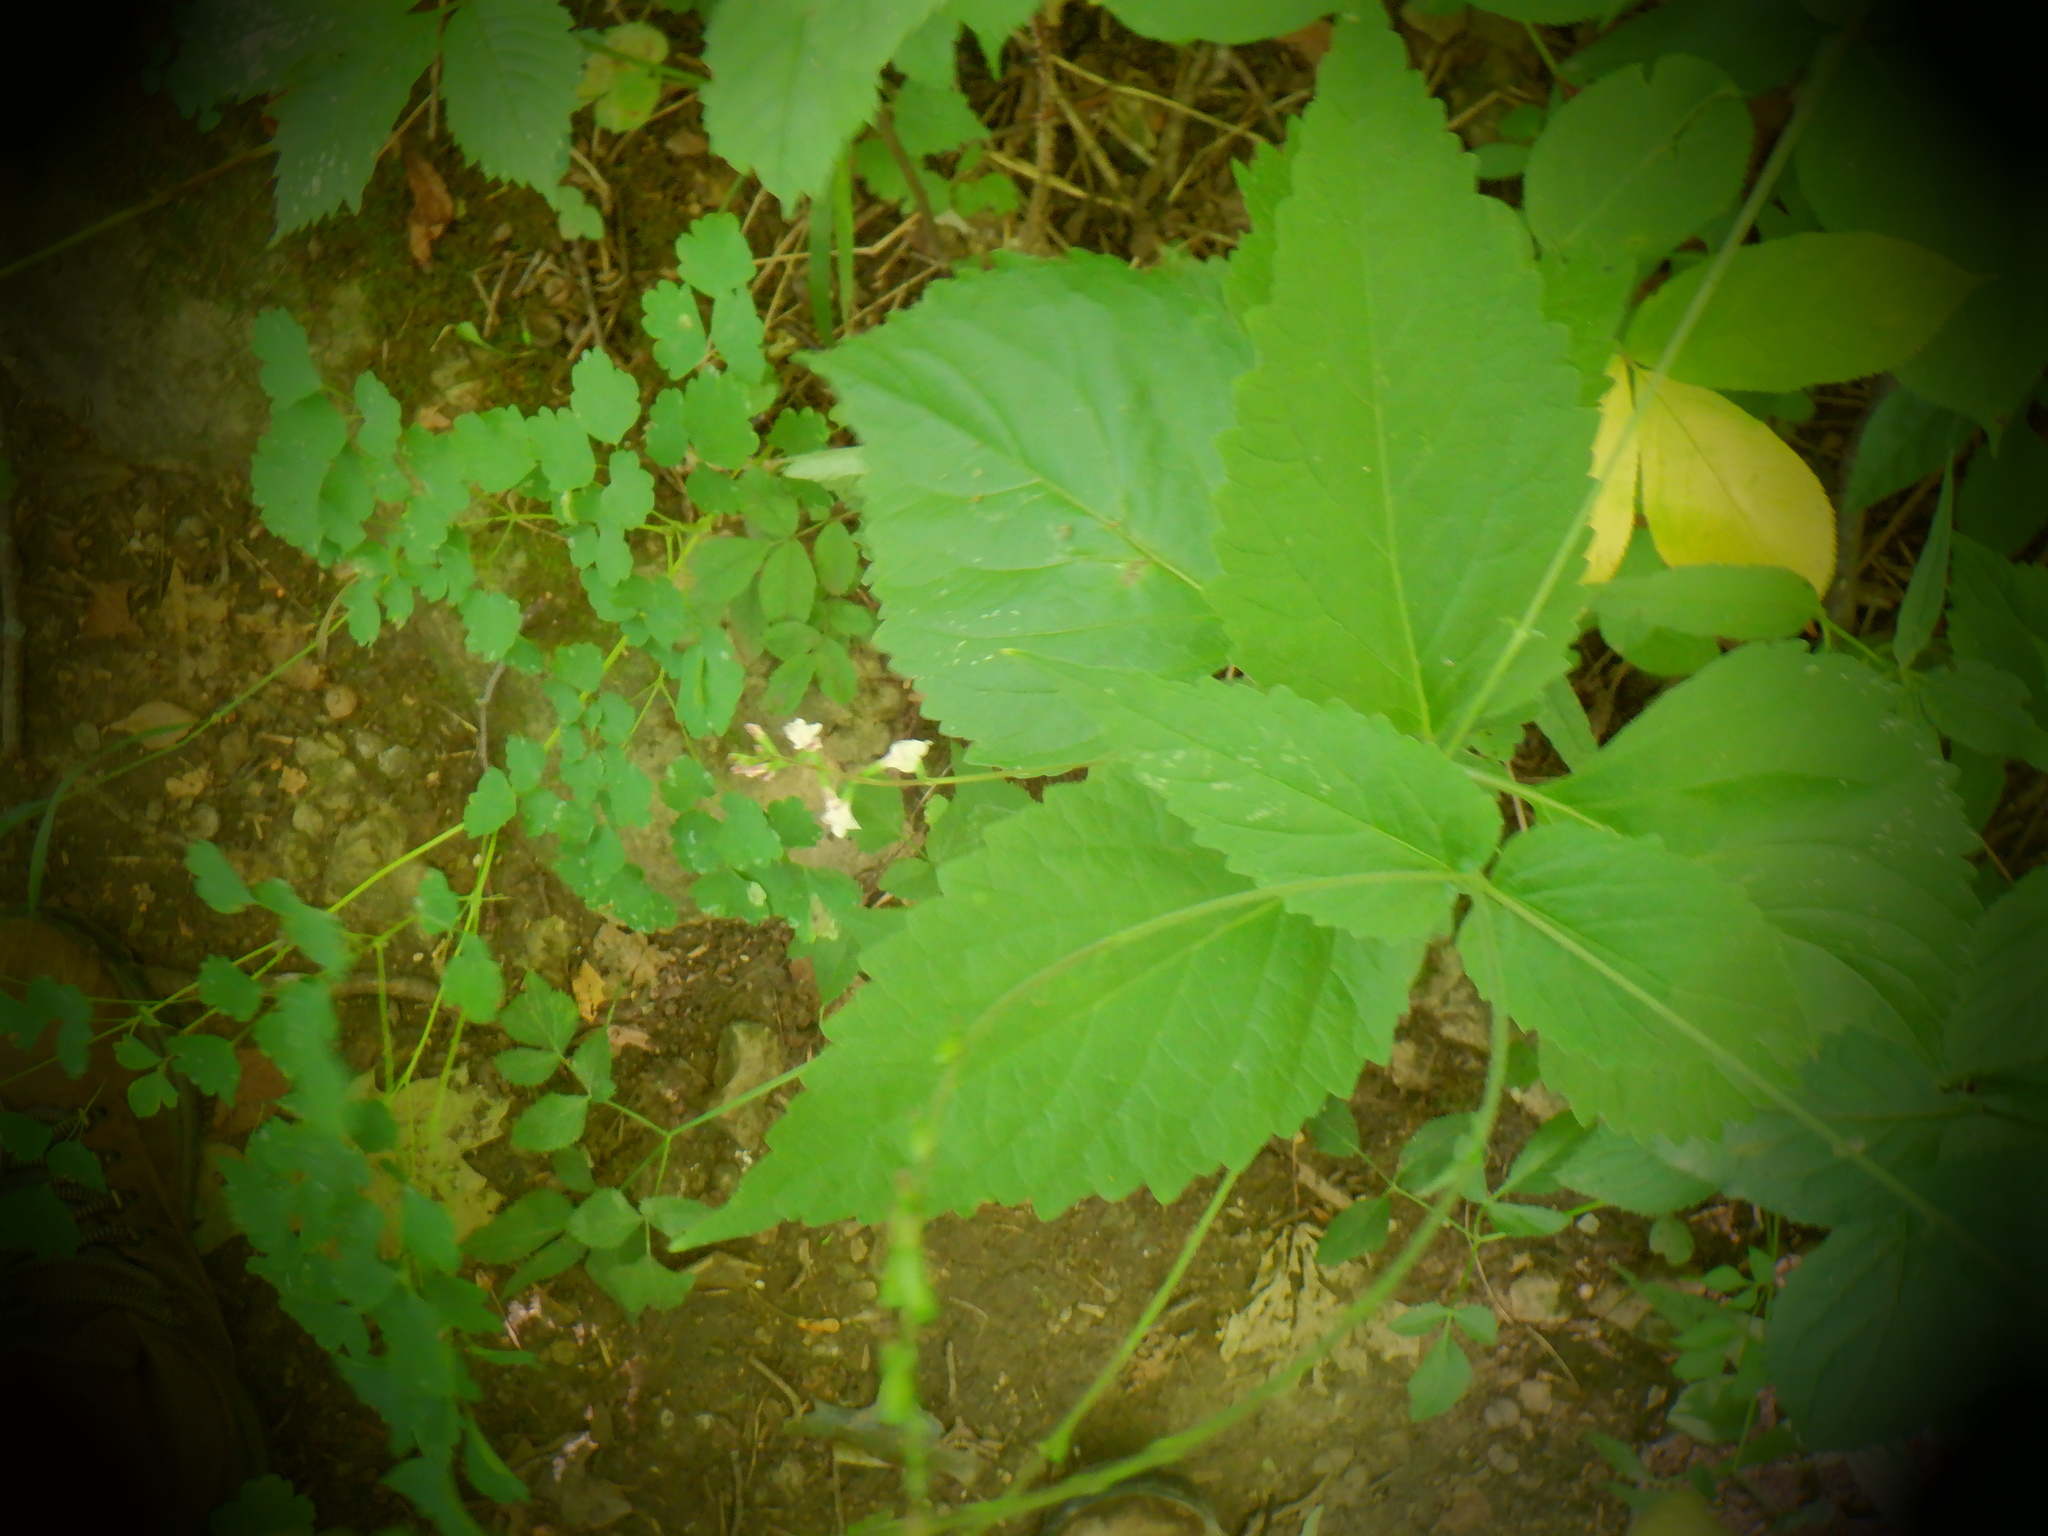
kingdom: Plantae
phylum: Tracheophyta
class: Magnoliopsida
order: Lamiales
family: Phrymaceae
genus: Phryma
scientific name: Phryma leptostachya
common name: American lopseed
